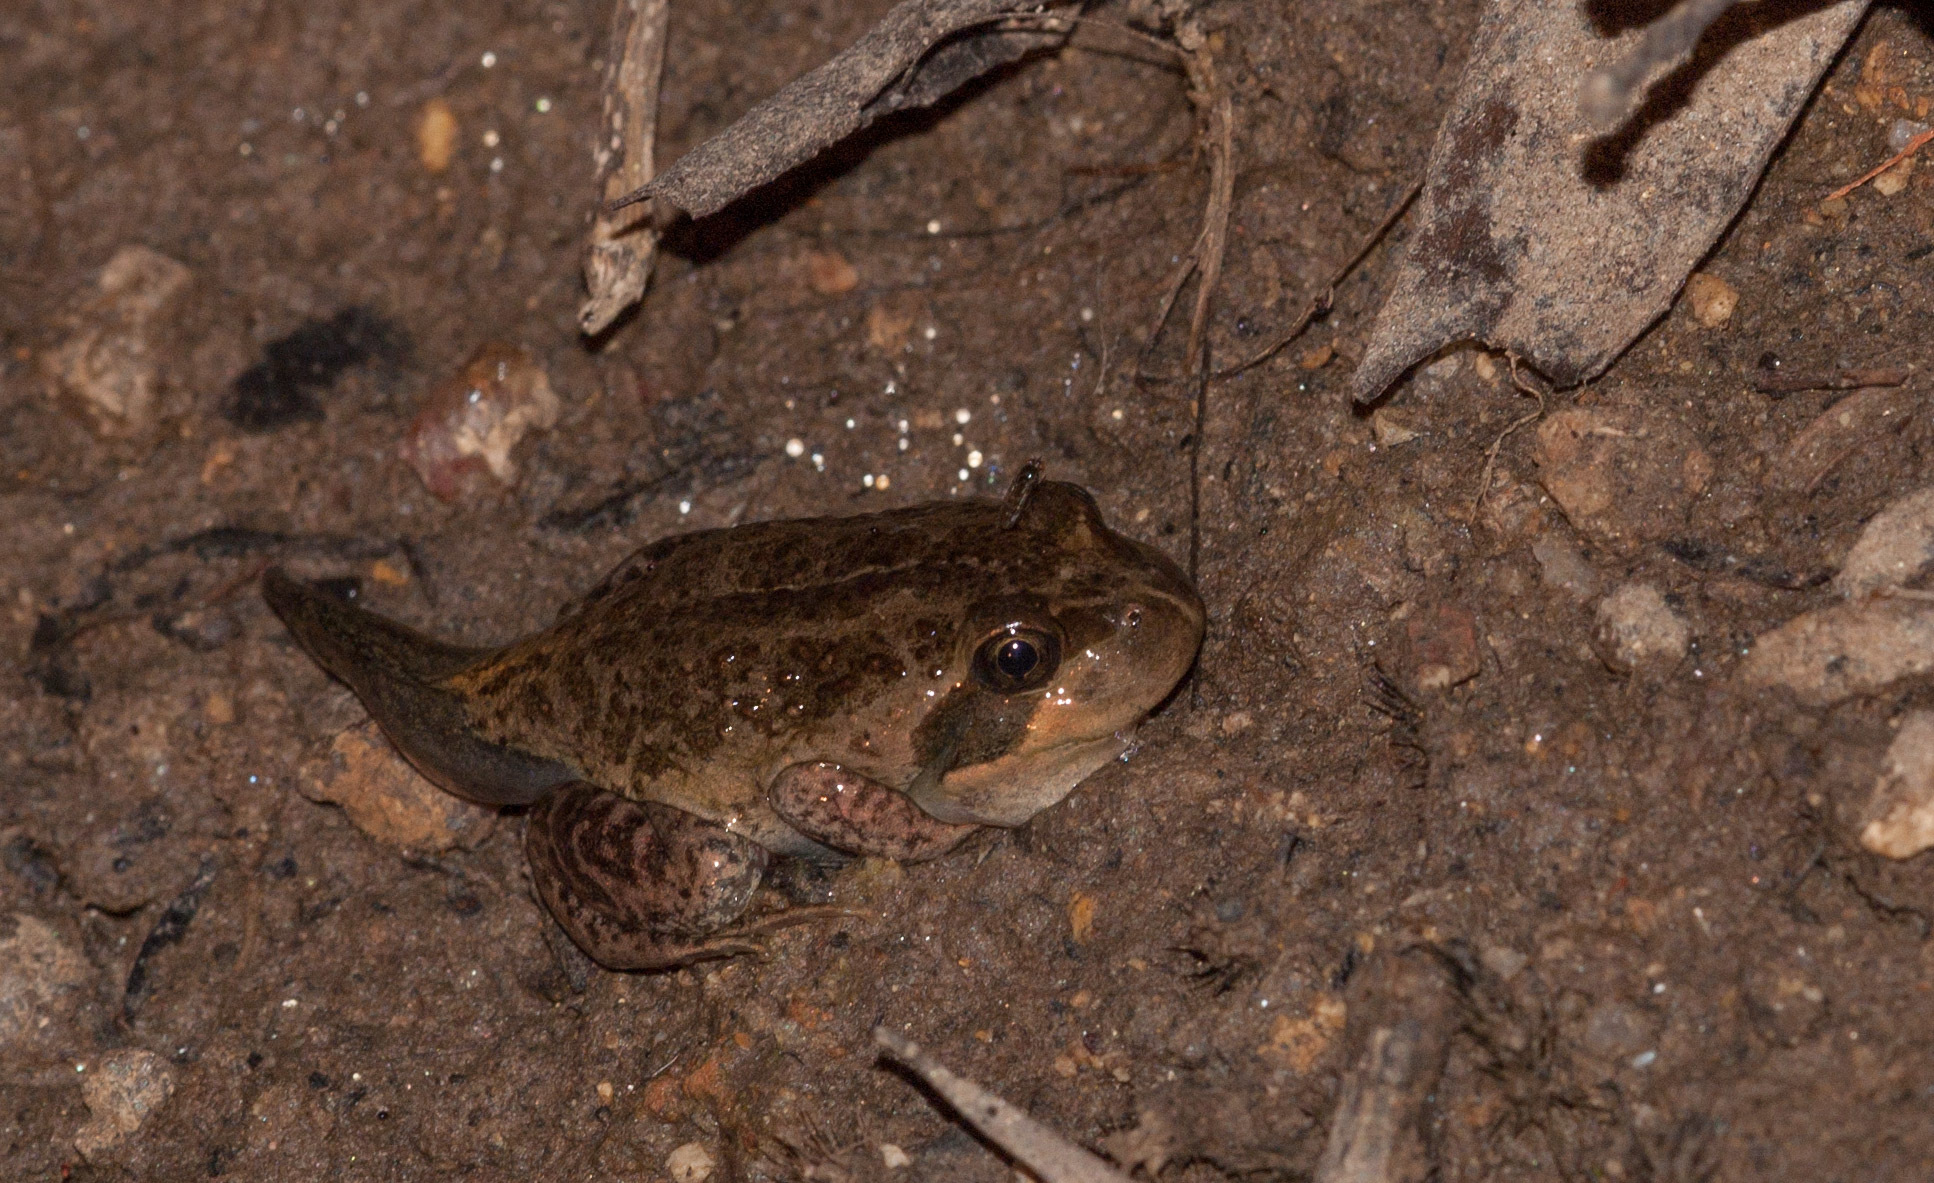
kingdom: Animalia
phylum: Chordata
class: Amphibia
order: Anura
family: Limnodynastidae
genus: Limnodynastes
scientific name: Limnodynastes dumerilii
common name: Banjo frog
